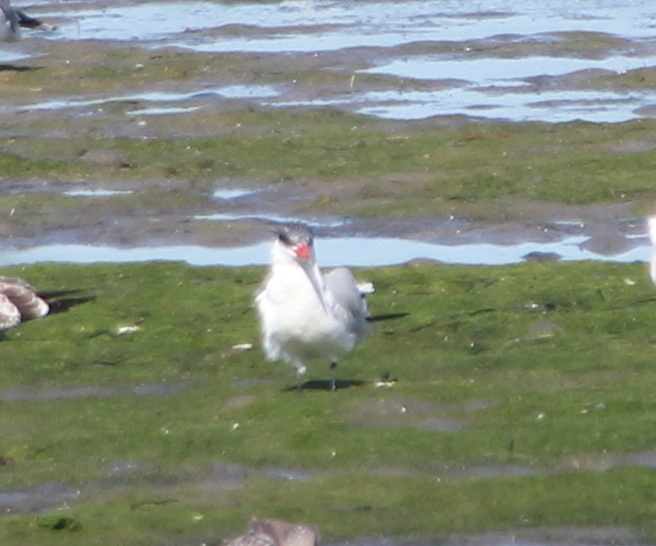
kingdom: Animalia
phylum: Chordata
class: Aves
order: Charadriiformes
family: Laridae
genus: Hydroprogne
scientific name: Hydroprogne caspia
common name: Caspian tern
